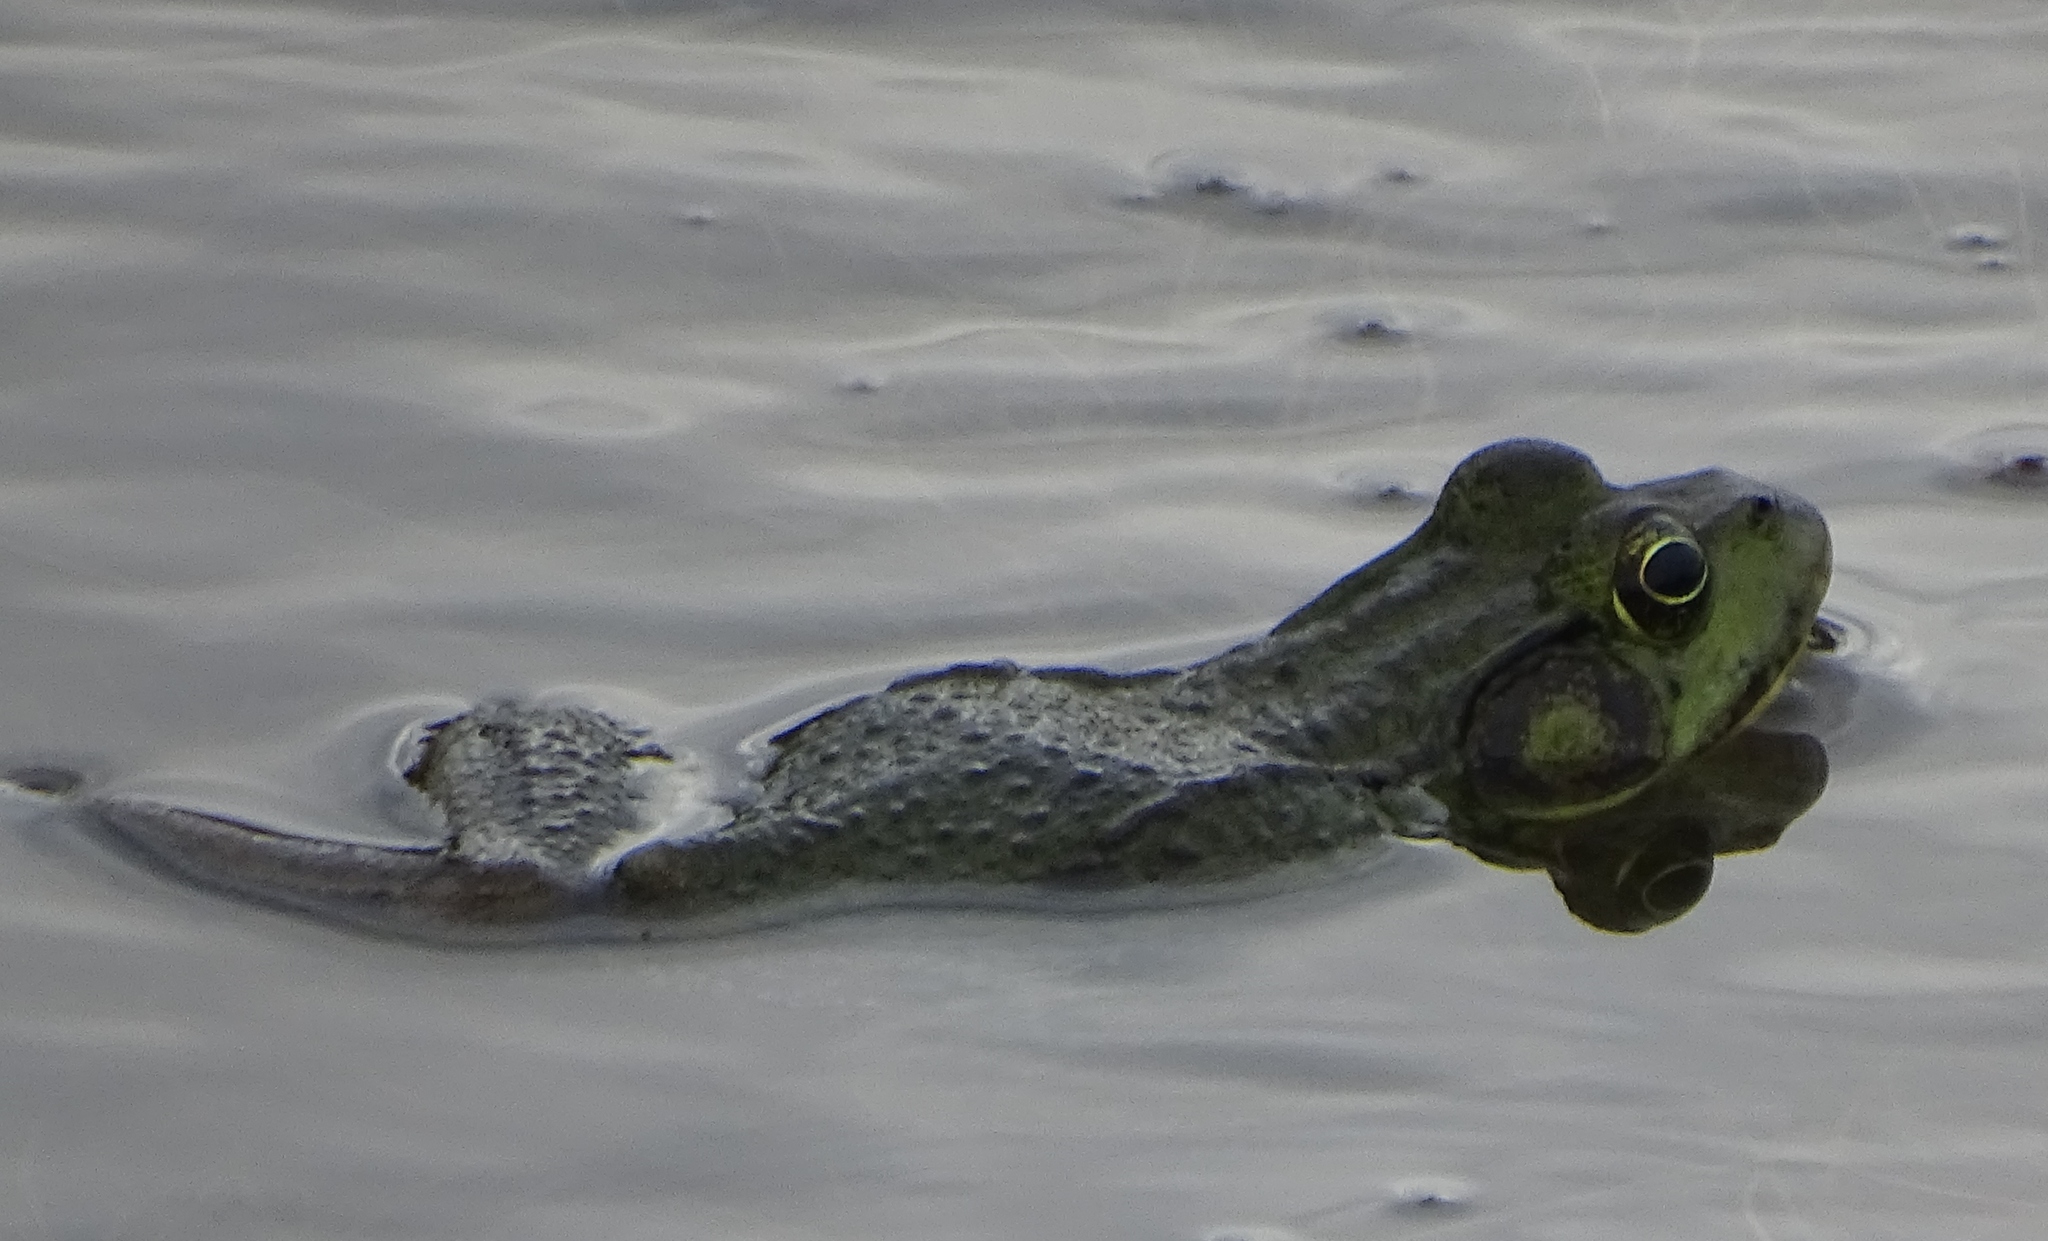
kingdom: Animalia
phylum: Chordata
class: Amphibia
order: Anura
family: Ranidae
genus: Lithobates
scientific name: Lithobates clamitans
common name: Green frog
